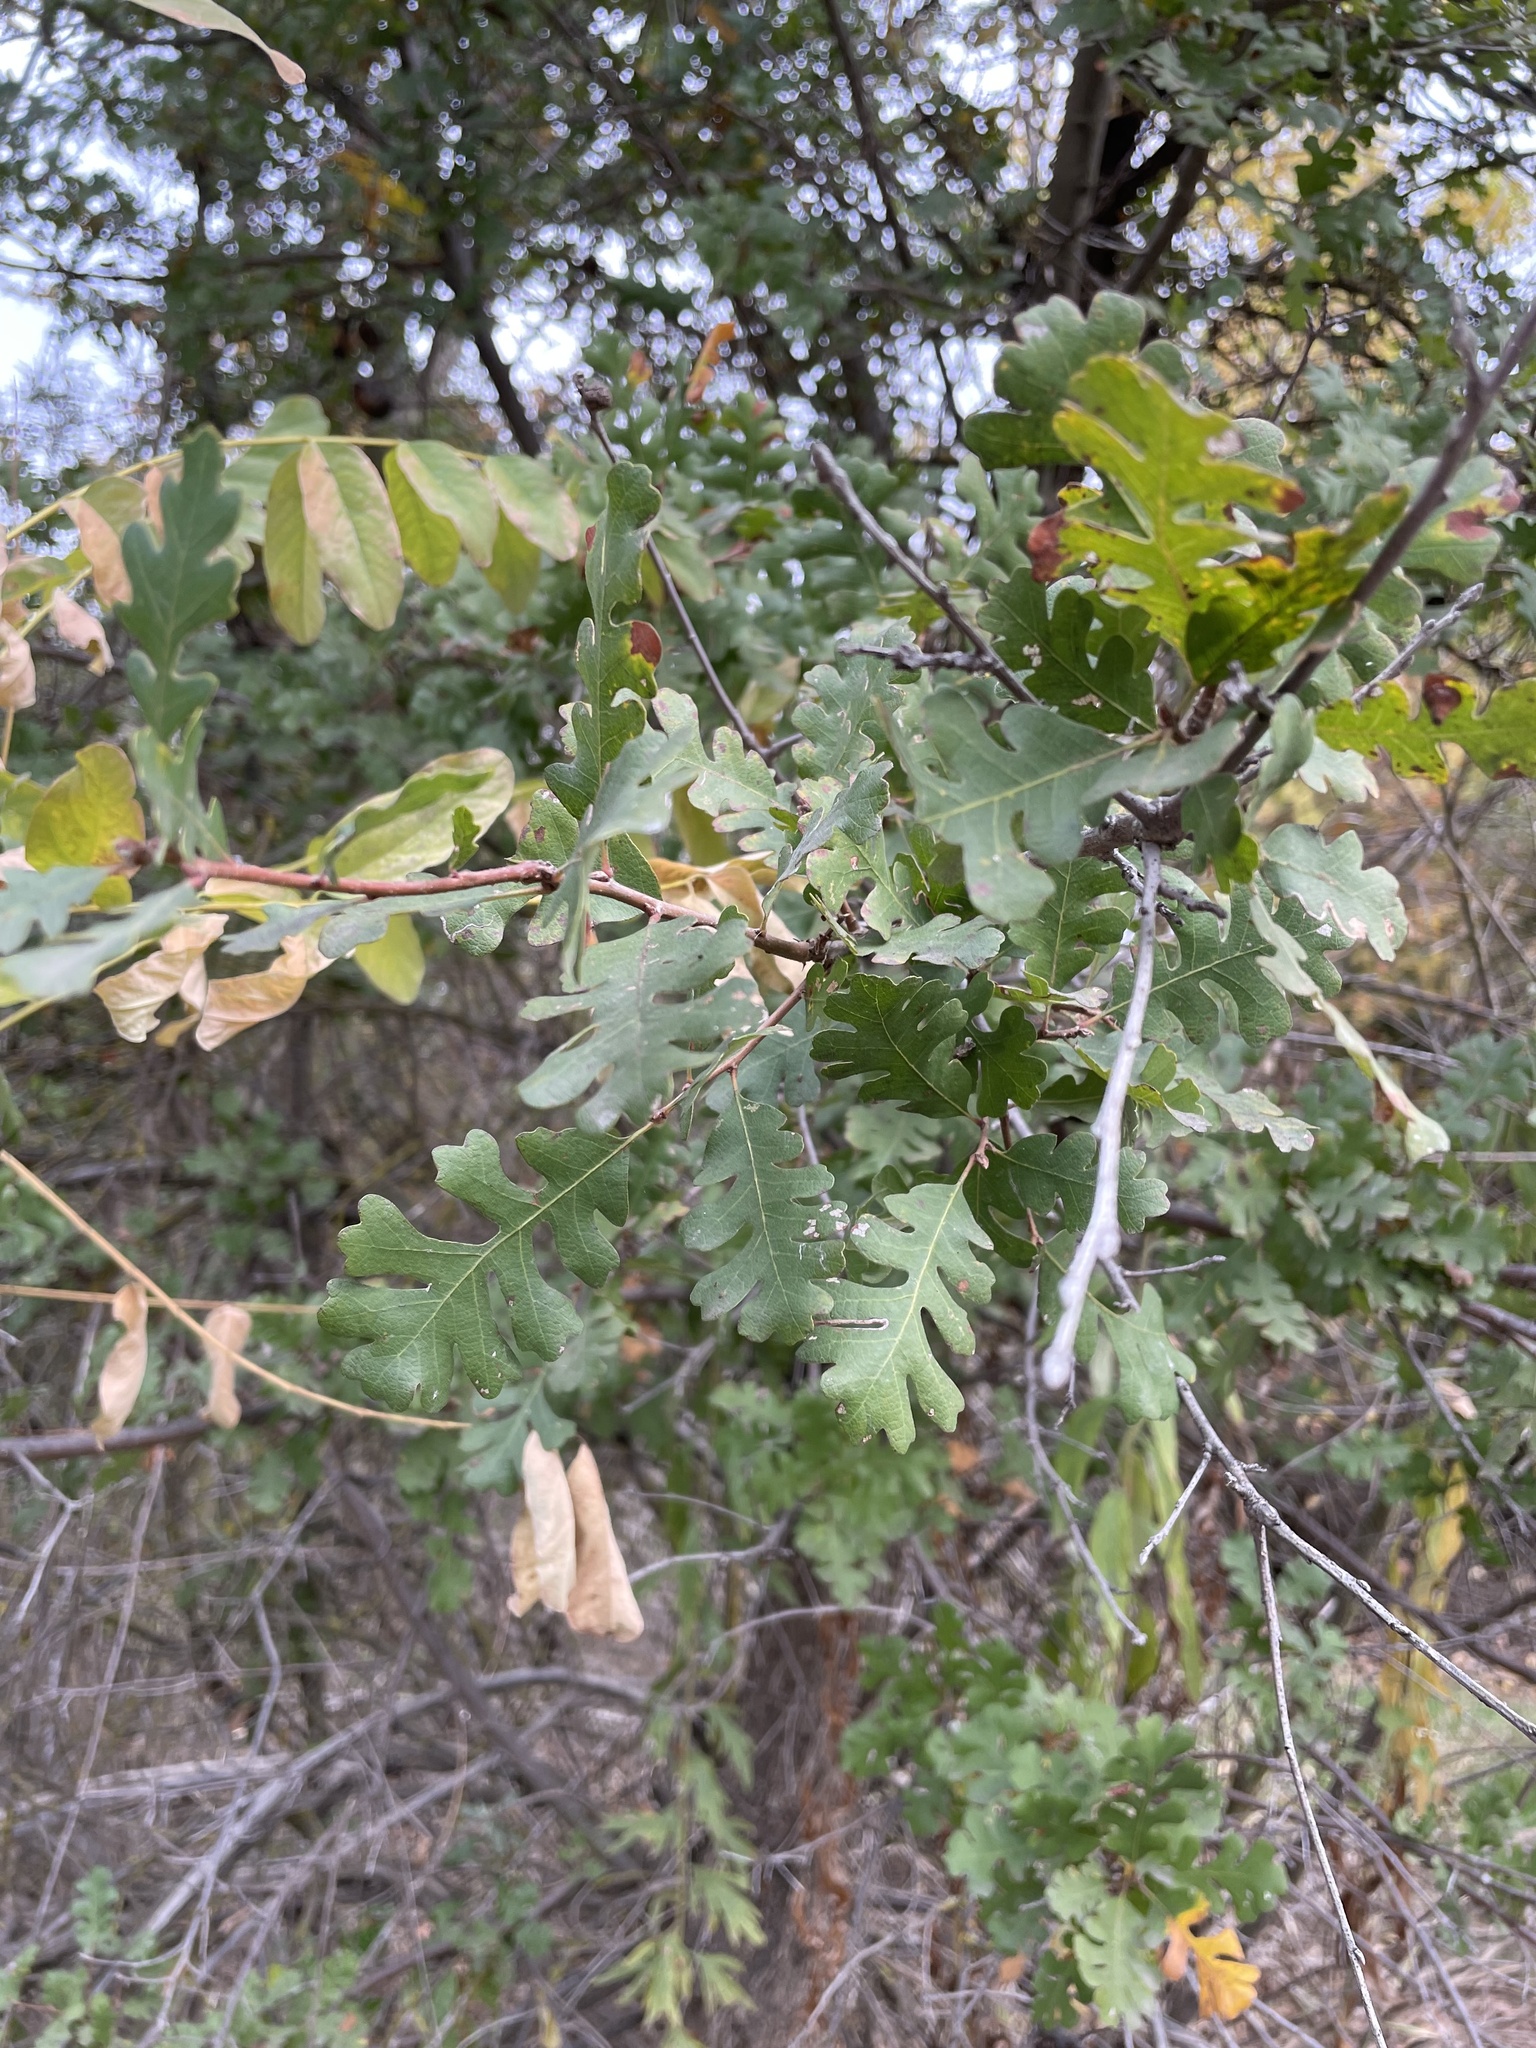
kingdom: Plantae
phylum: Tracheophyta
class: Magnoliopsida
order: Fagales
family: Fagaceae
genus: Quercus
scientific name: Quercus lobata
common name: Valley oak
